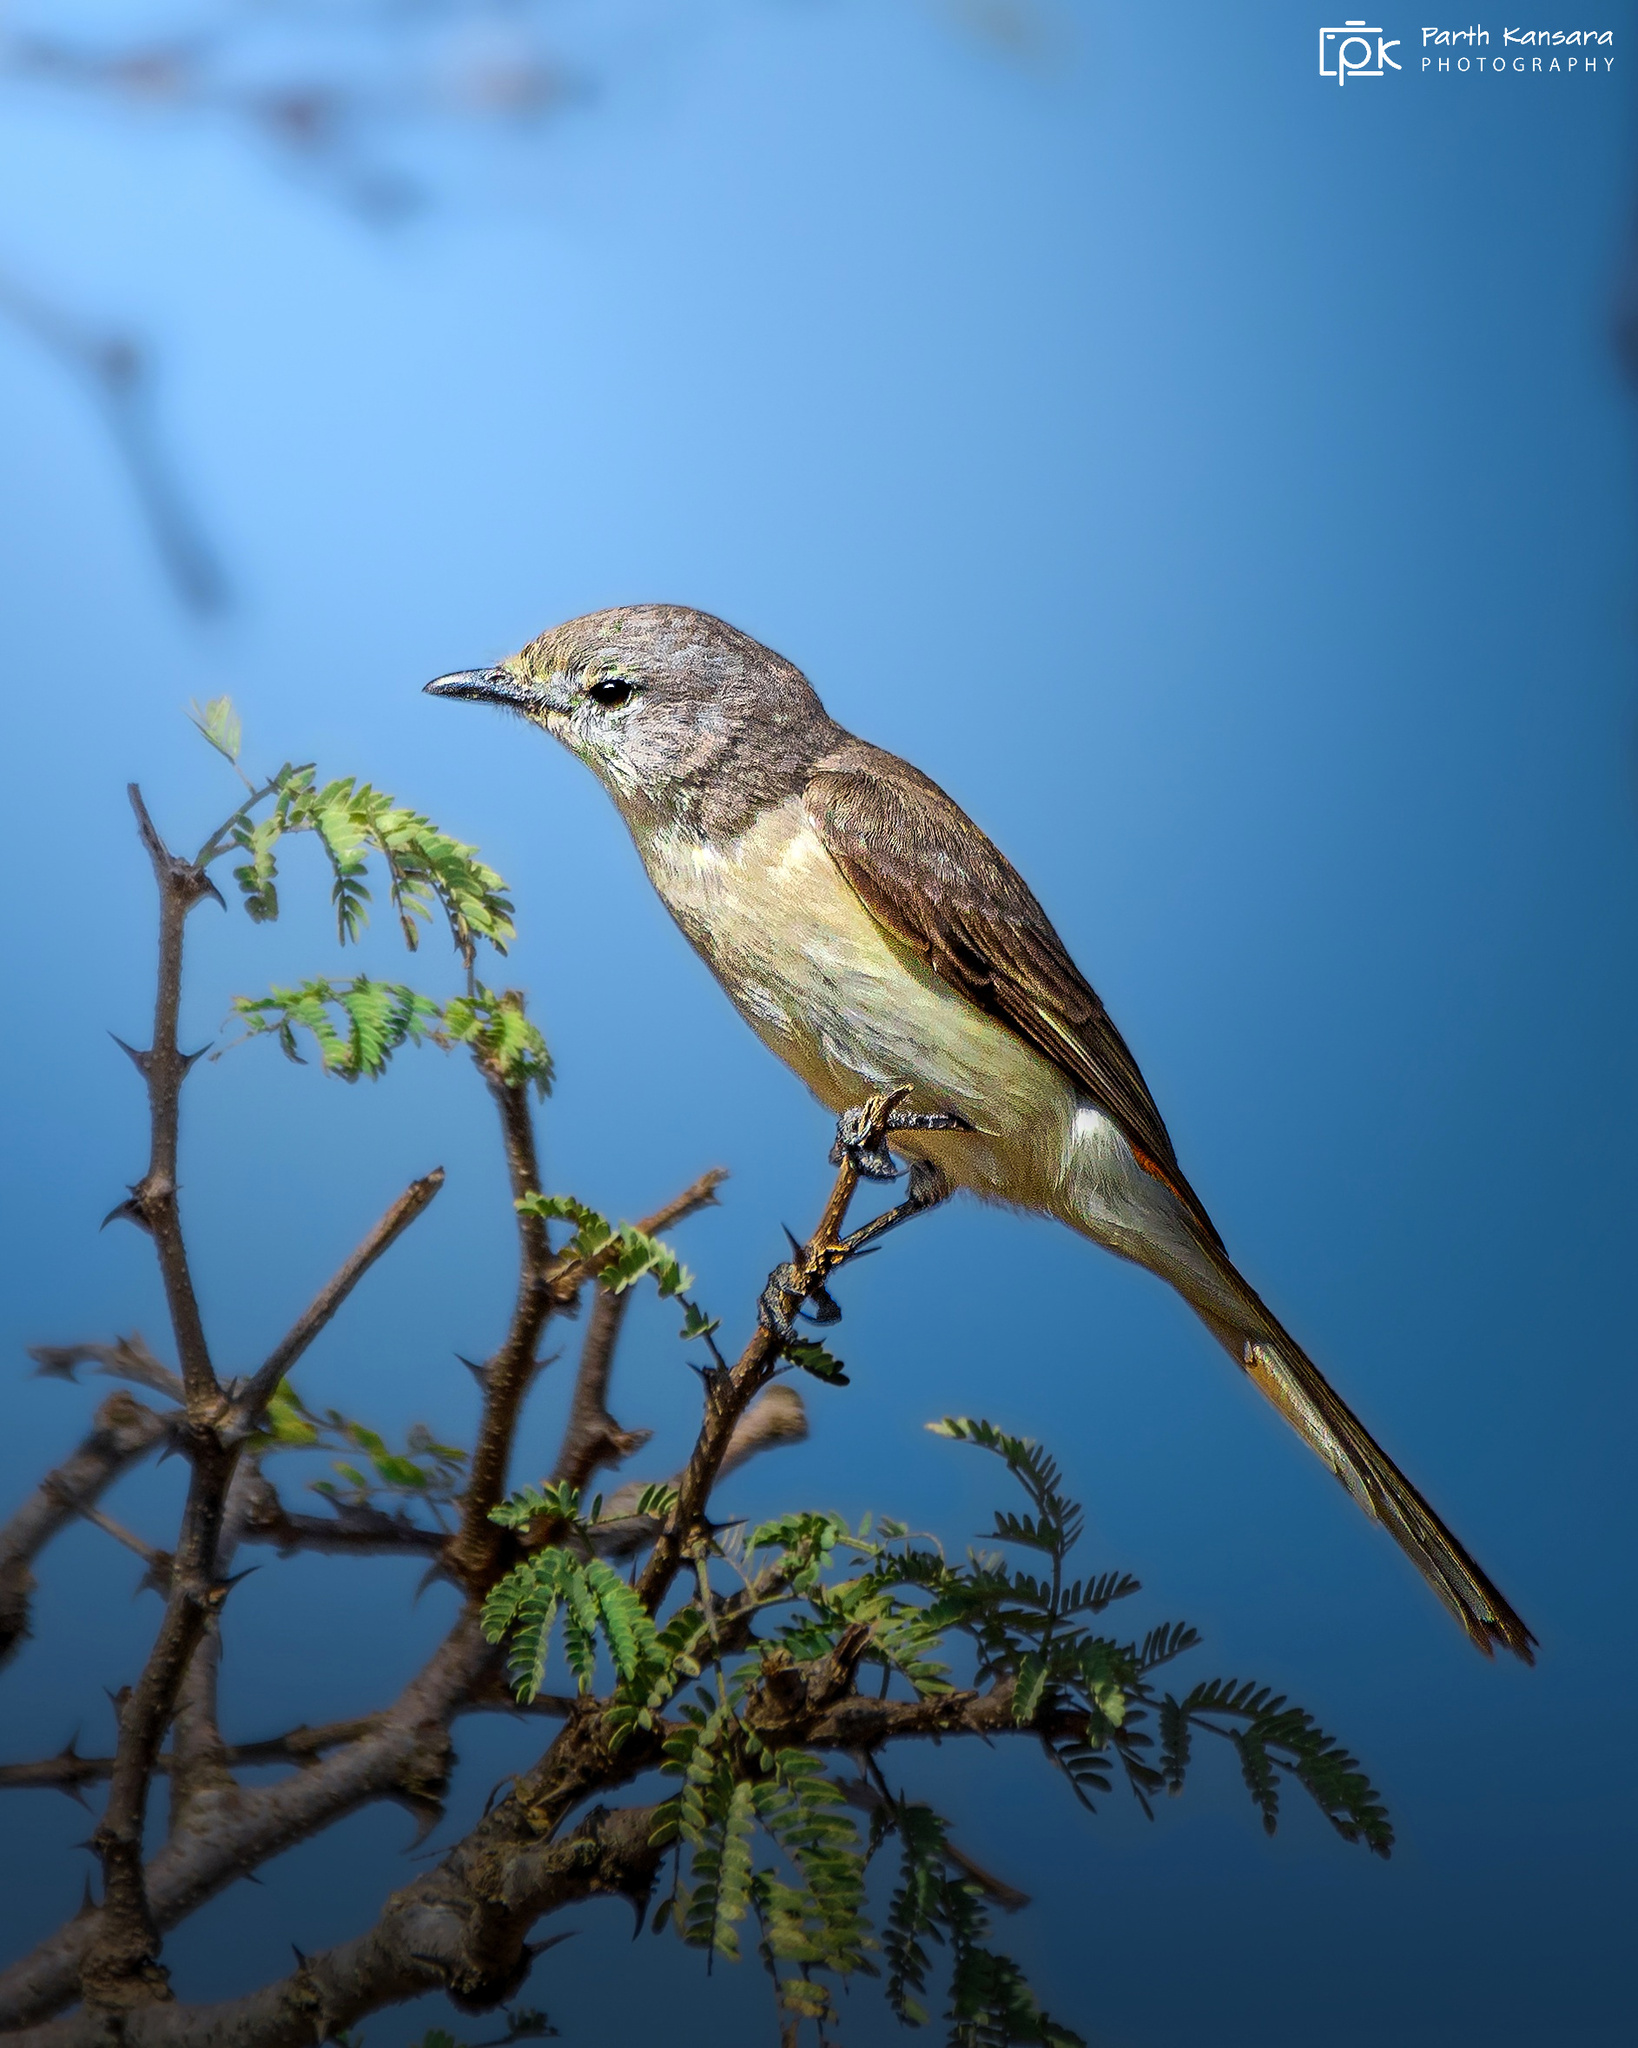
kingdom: Animalia
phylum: Chordata
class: Aves
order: Passeriformes
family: Campephagidae
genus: Pericrocotus
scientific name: Pericrocotus cinnamomeus
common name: Small minivet
